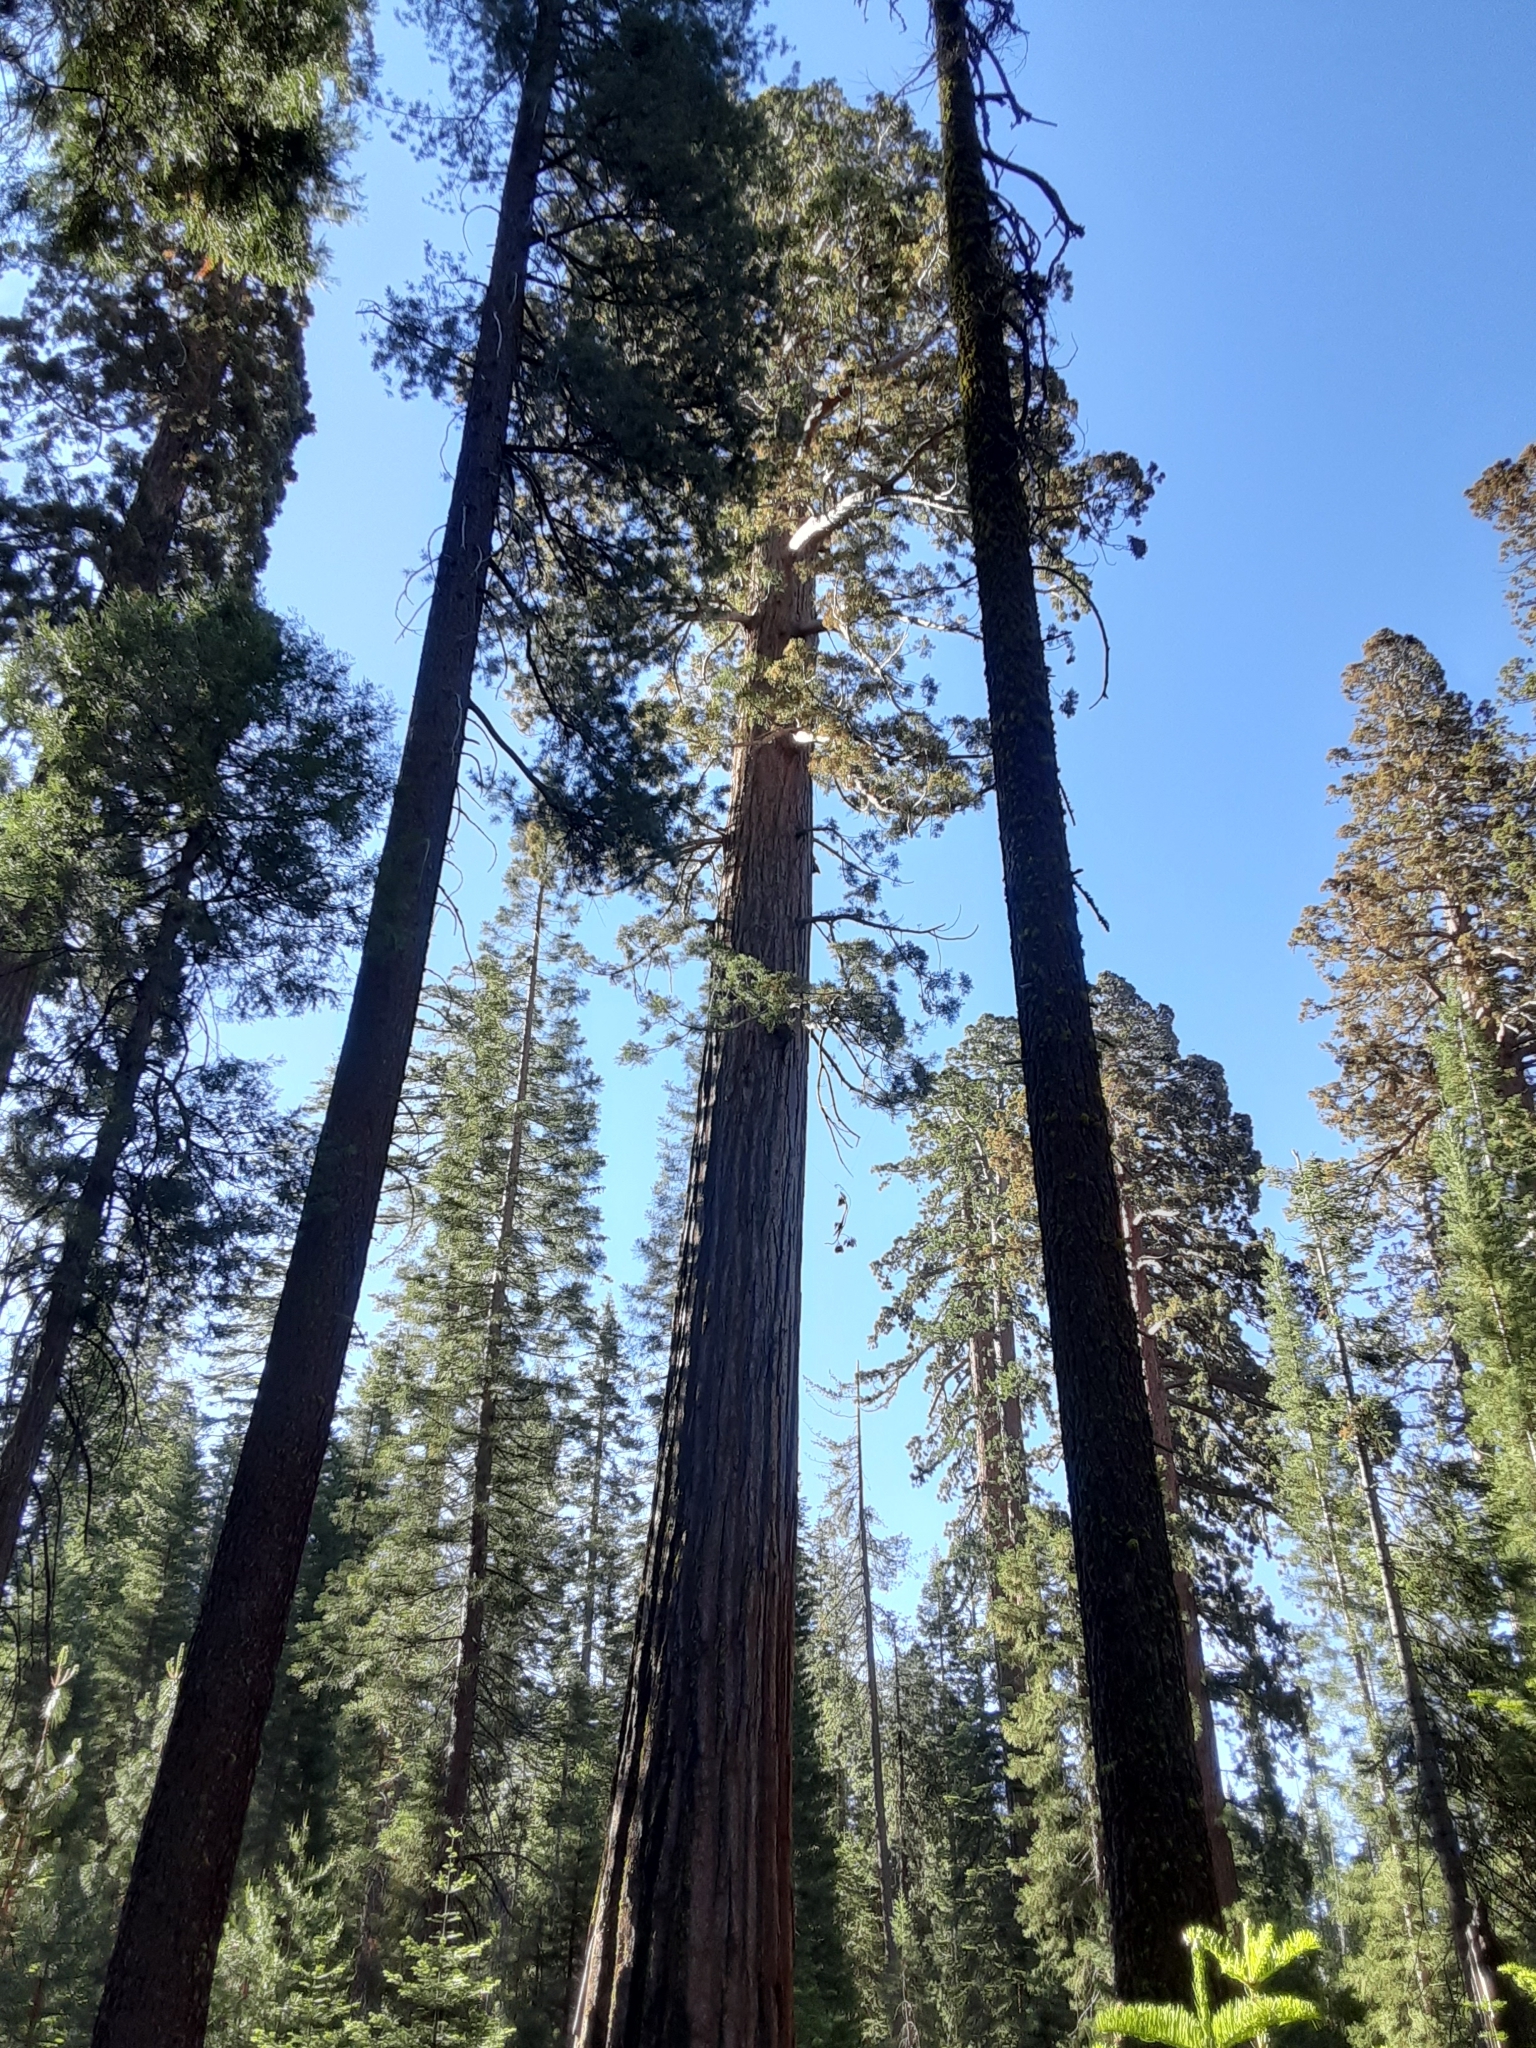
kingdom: Plantae
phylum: Tracheophyta
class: Pinopsida
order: Pinales
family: Cupressaceae
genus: Sequoiadendron
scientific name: Sequoiadendron giganteum
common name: Wellingtonia
